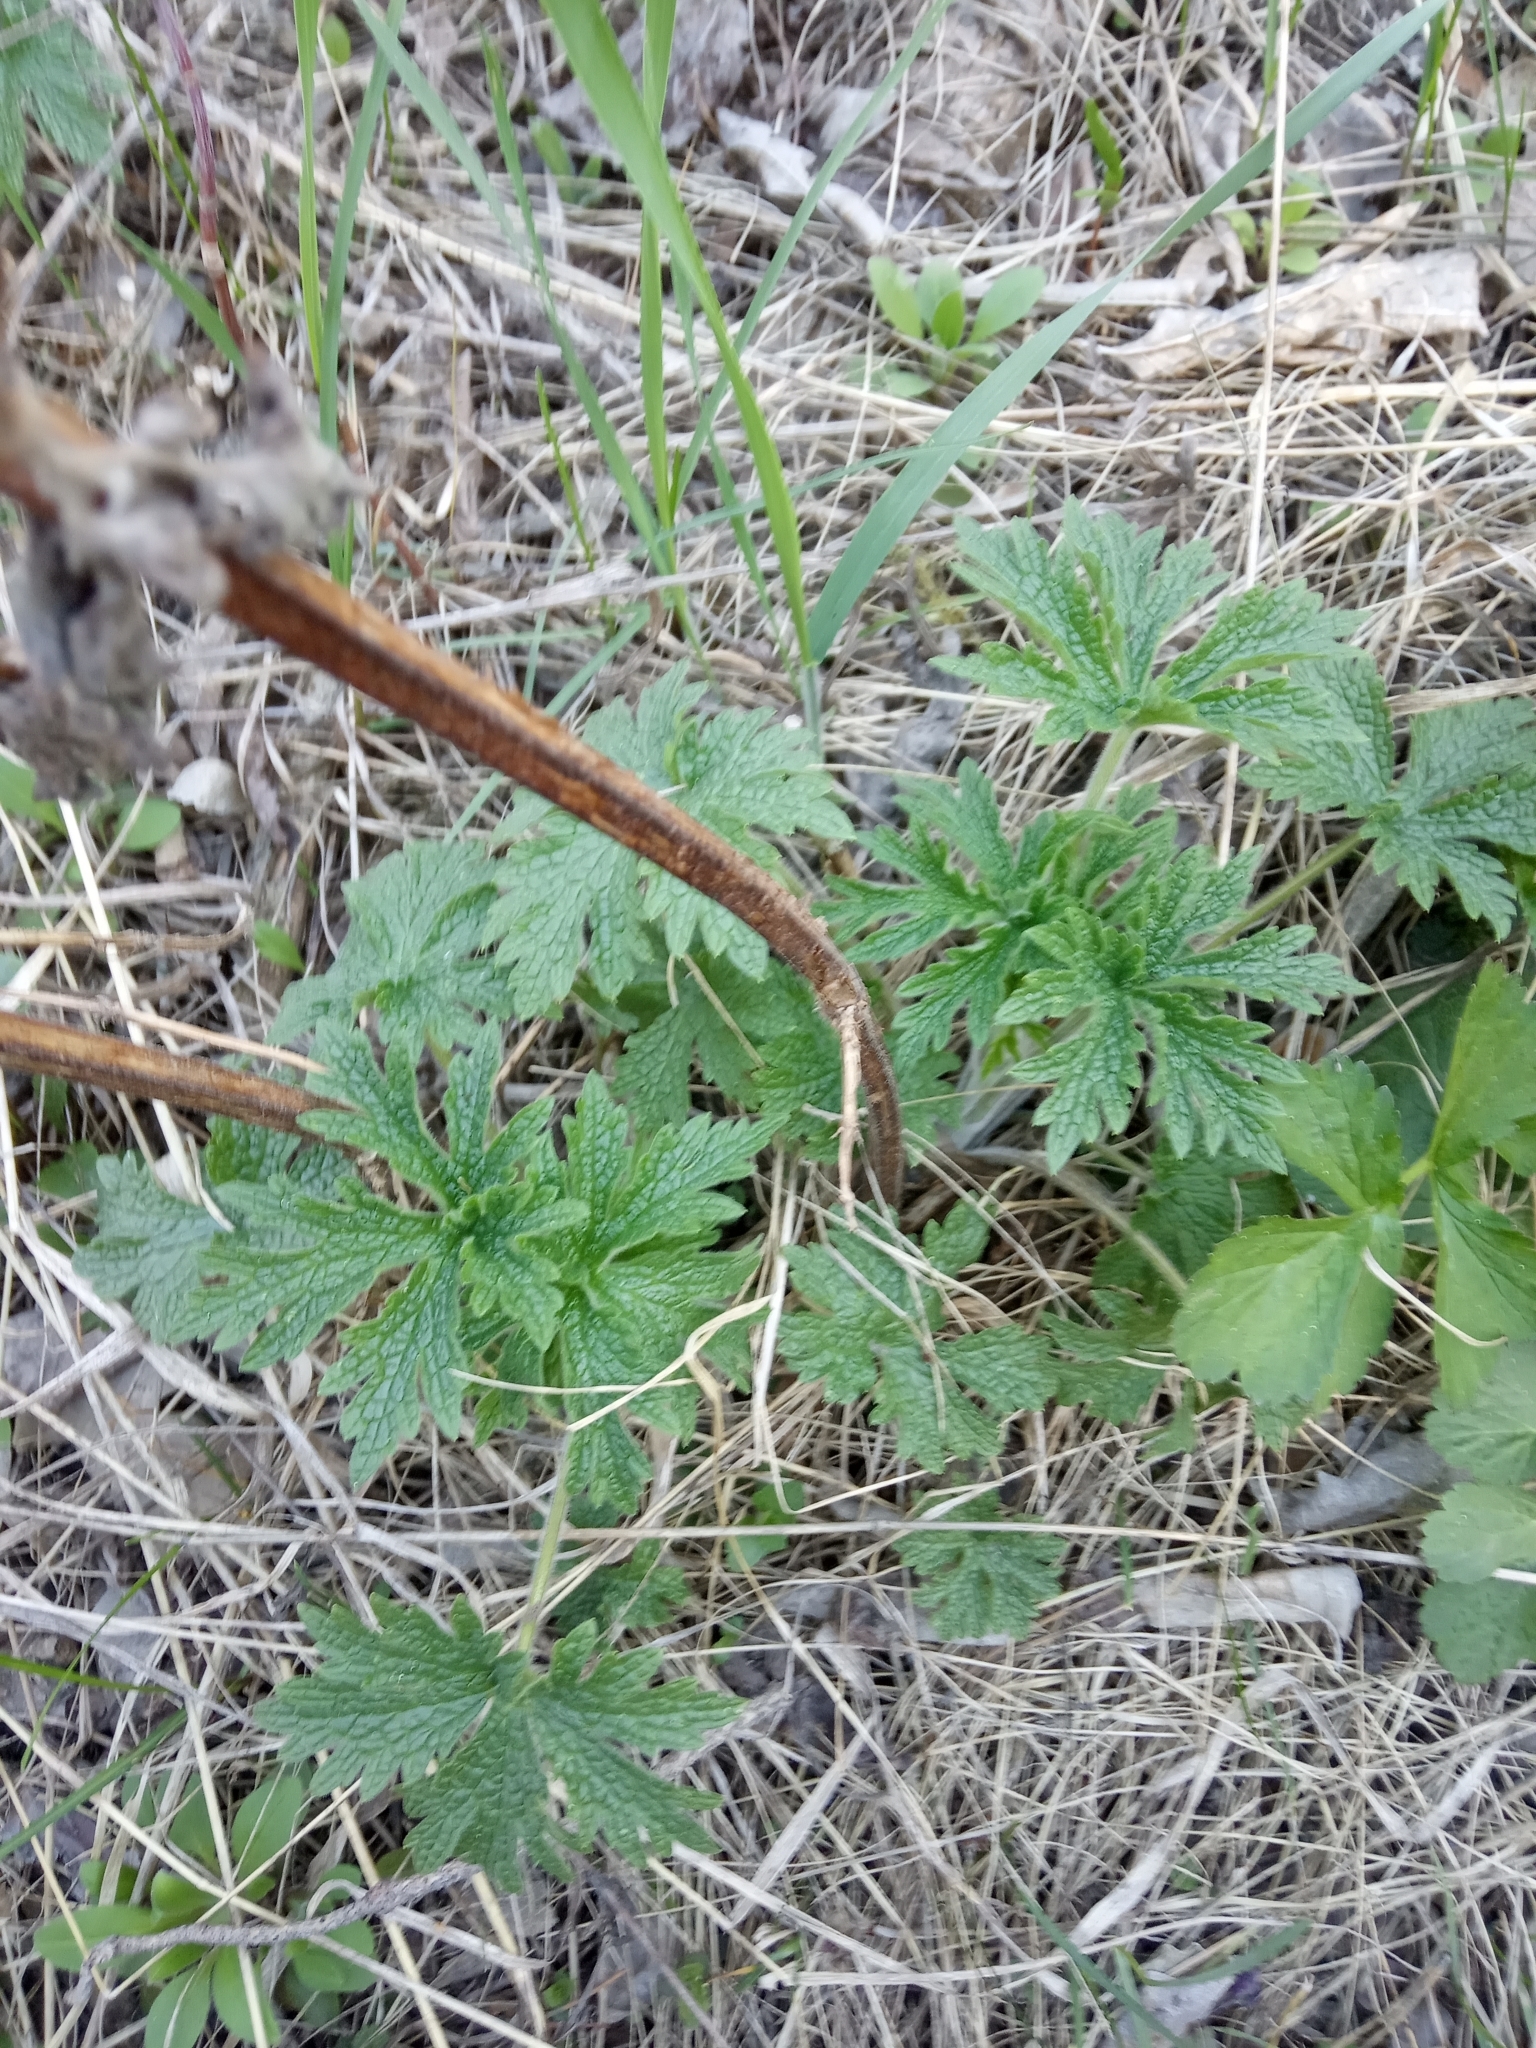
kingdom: Plantae
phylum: Tracheophyta
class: Magnoliopsida
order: Lamiales
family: Lamiaceae
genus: Leonurus
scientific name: Leonurus quinquelobatus
